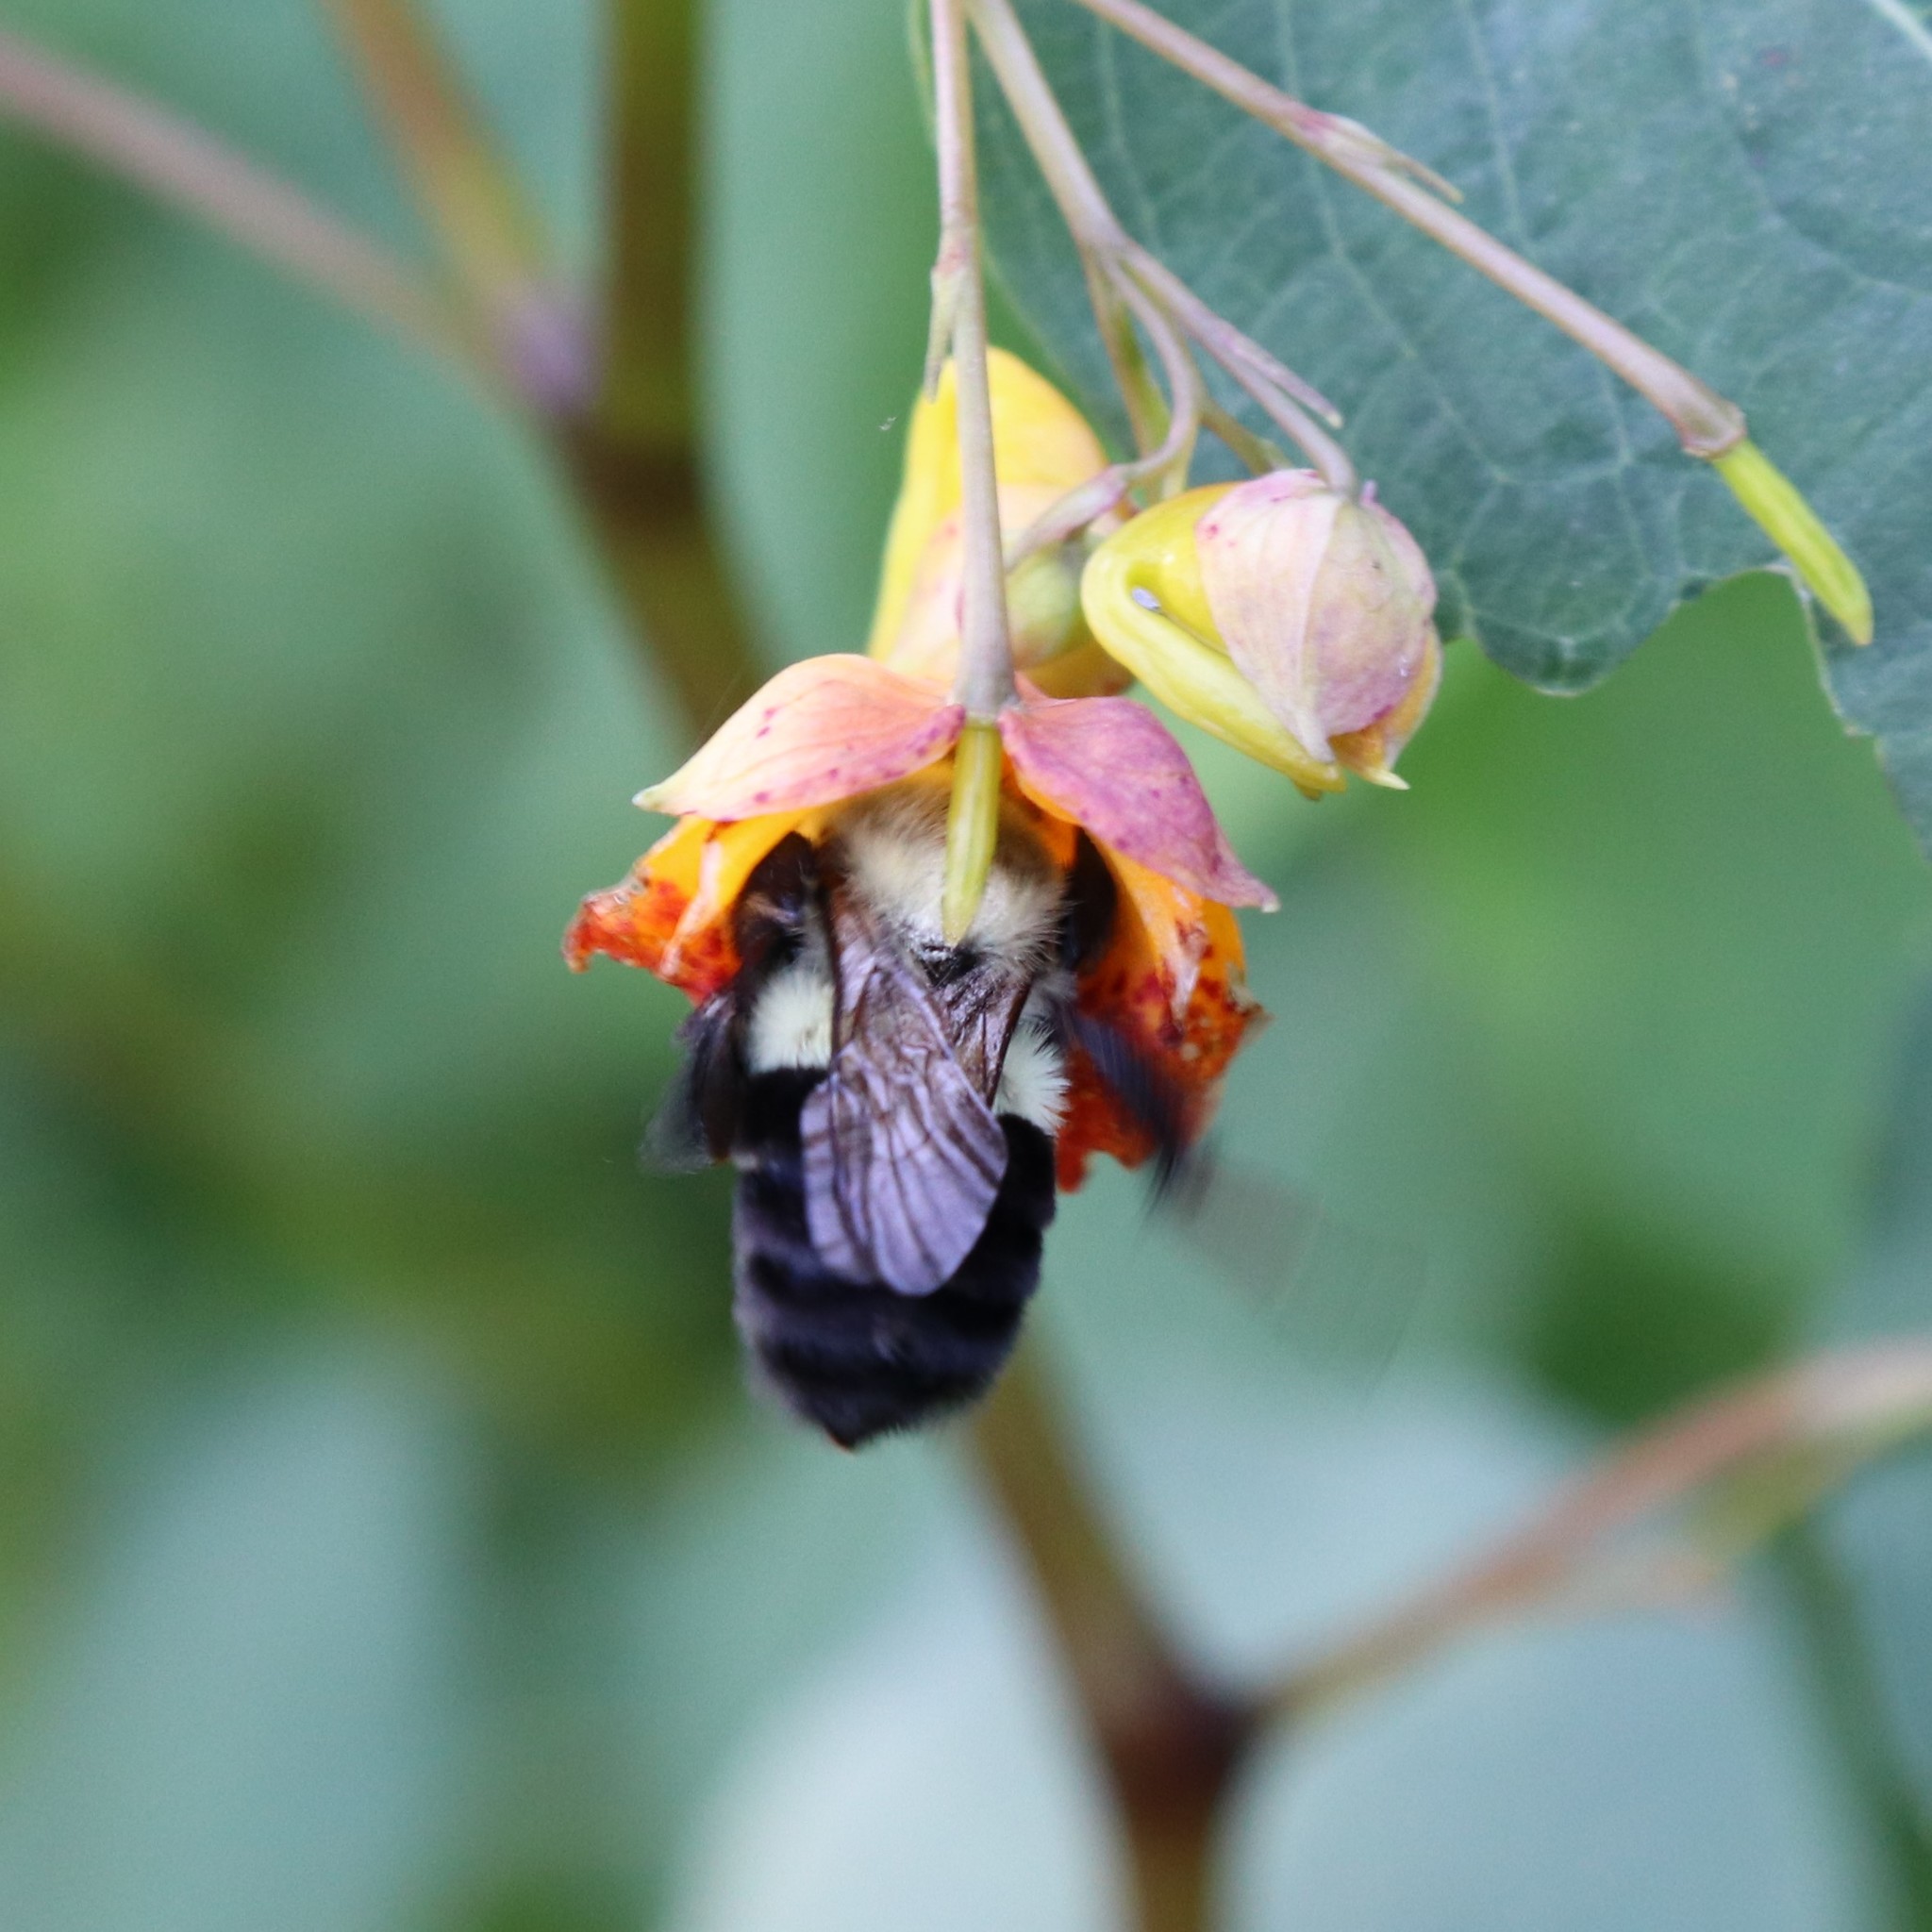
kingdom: Animalia
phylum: Arthropoda
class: Insecta
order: Hymenoptera
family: Apidae
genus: Bombus
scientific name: Bombus impatiens
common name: Common eastern bumble bee
